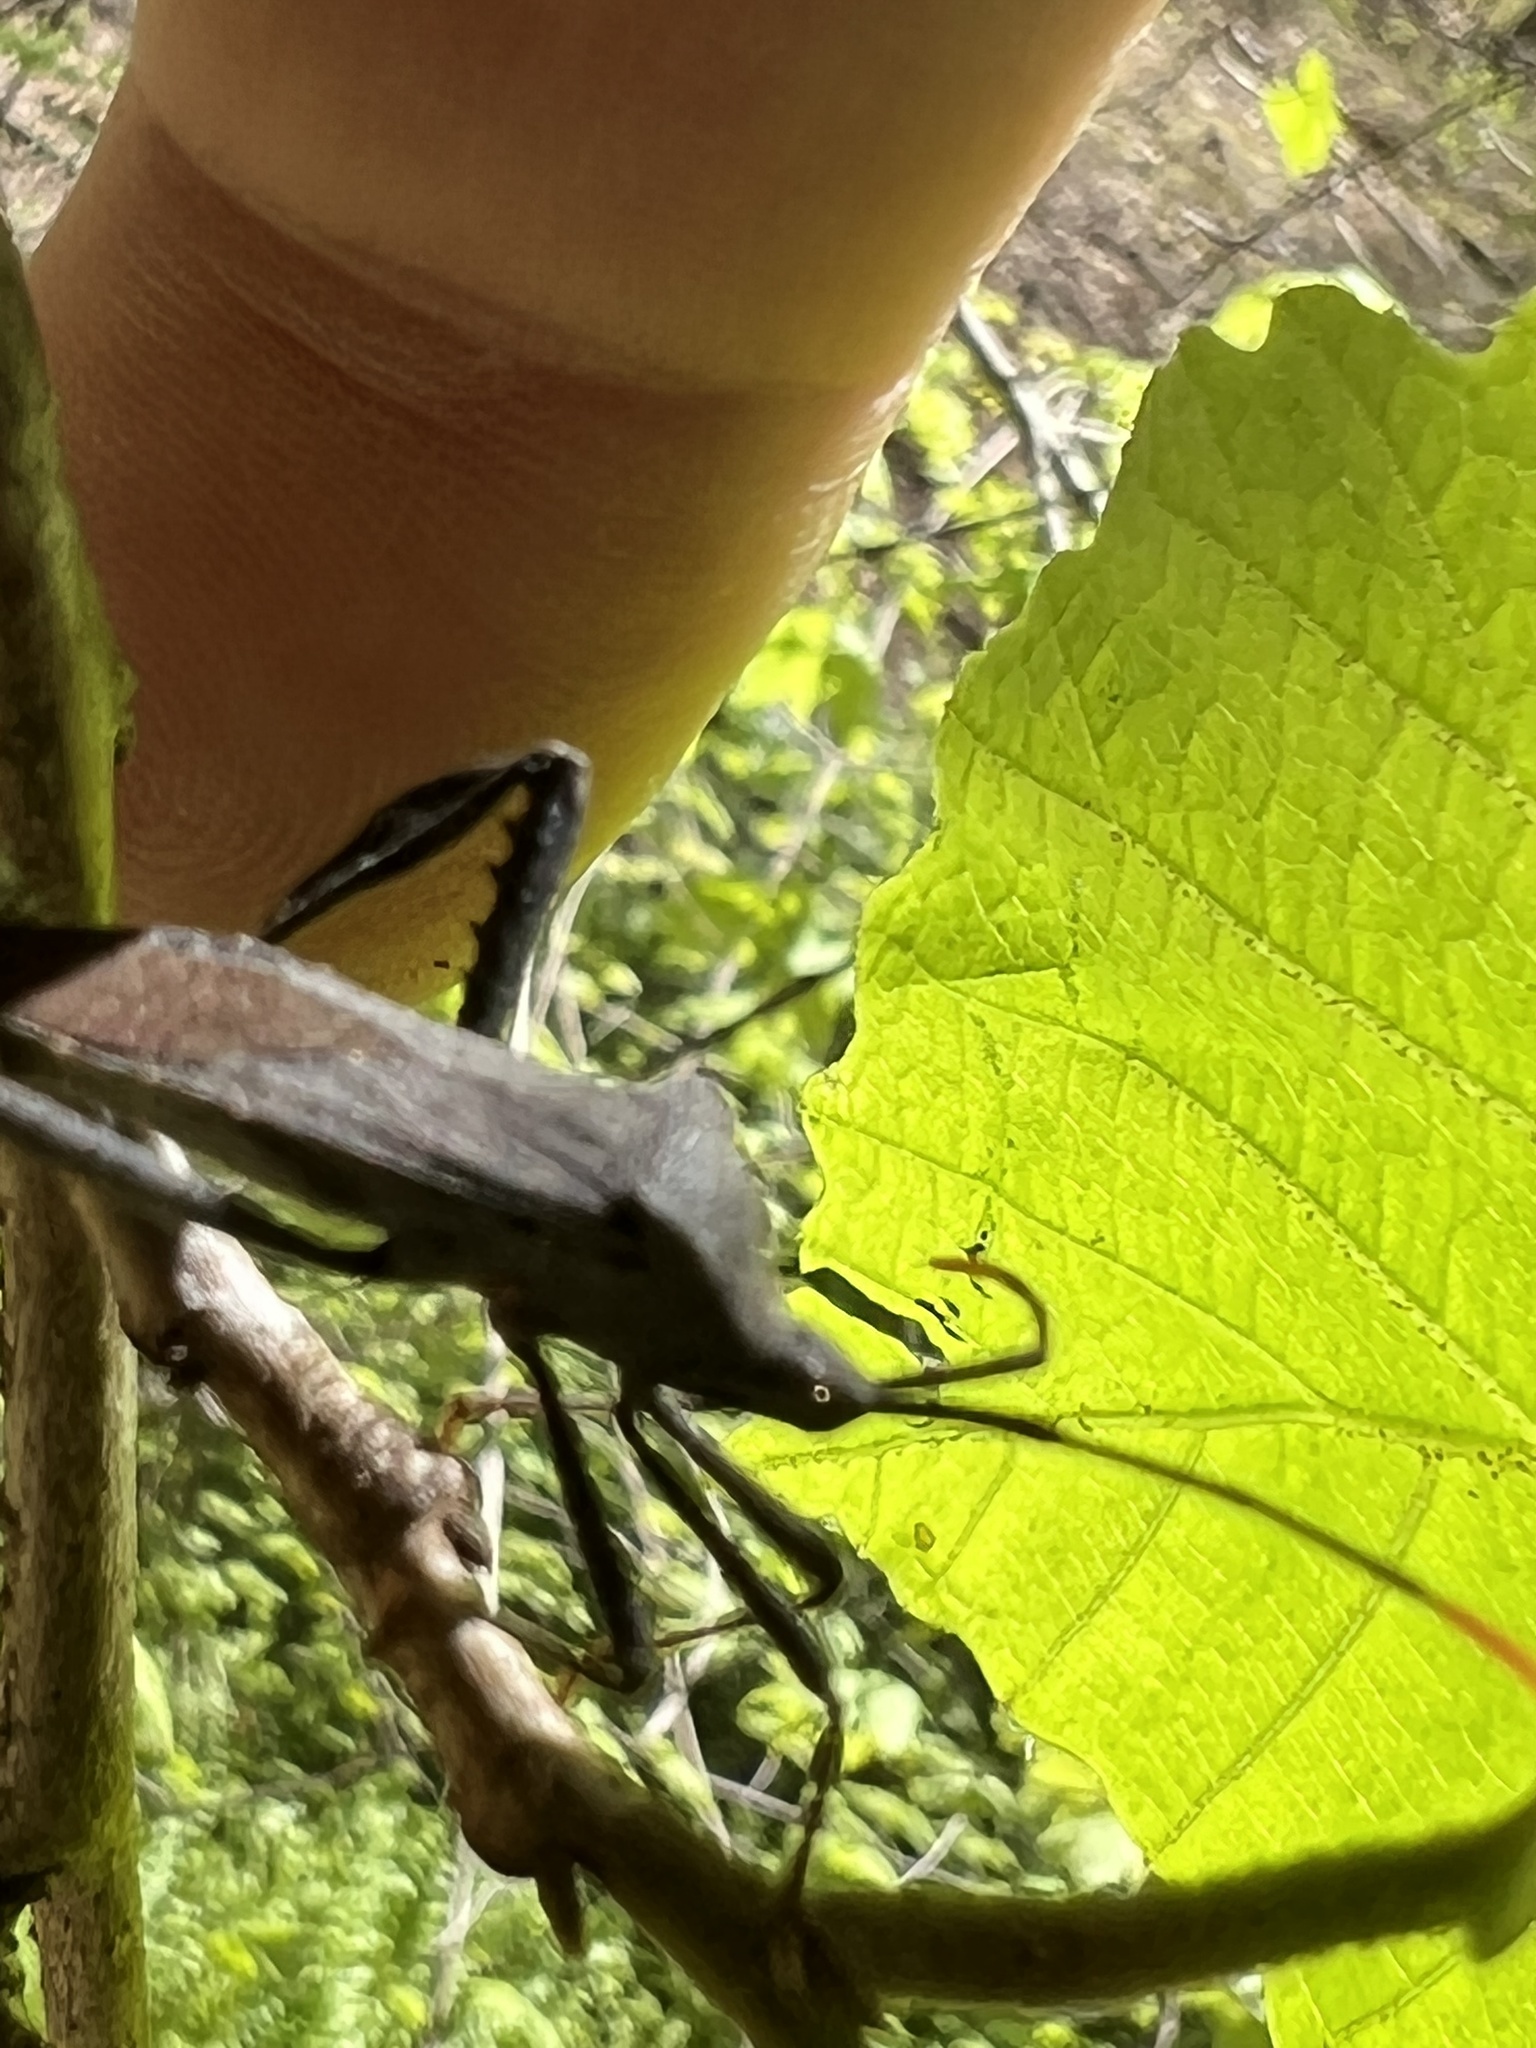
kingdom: Animalia
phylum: Arthropoda
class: Insecta
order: Hemiptera
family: Coreidae
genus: Acanthocephala
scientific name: Acanthocephala terminalis
